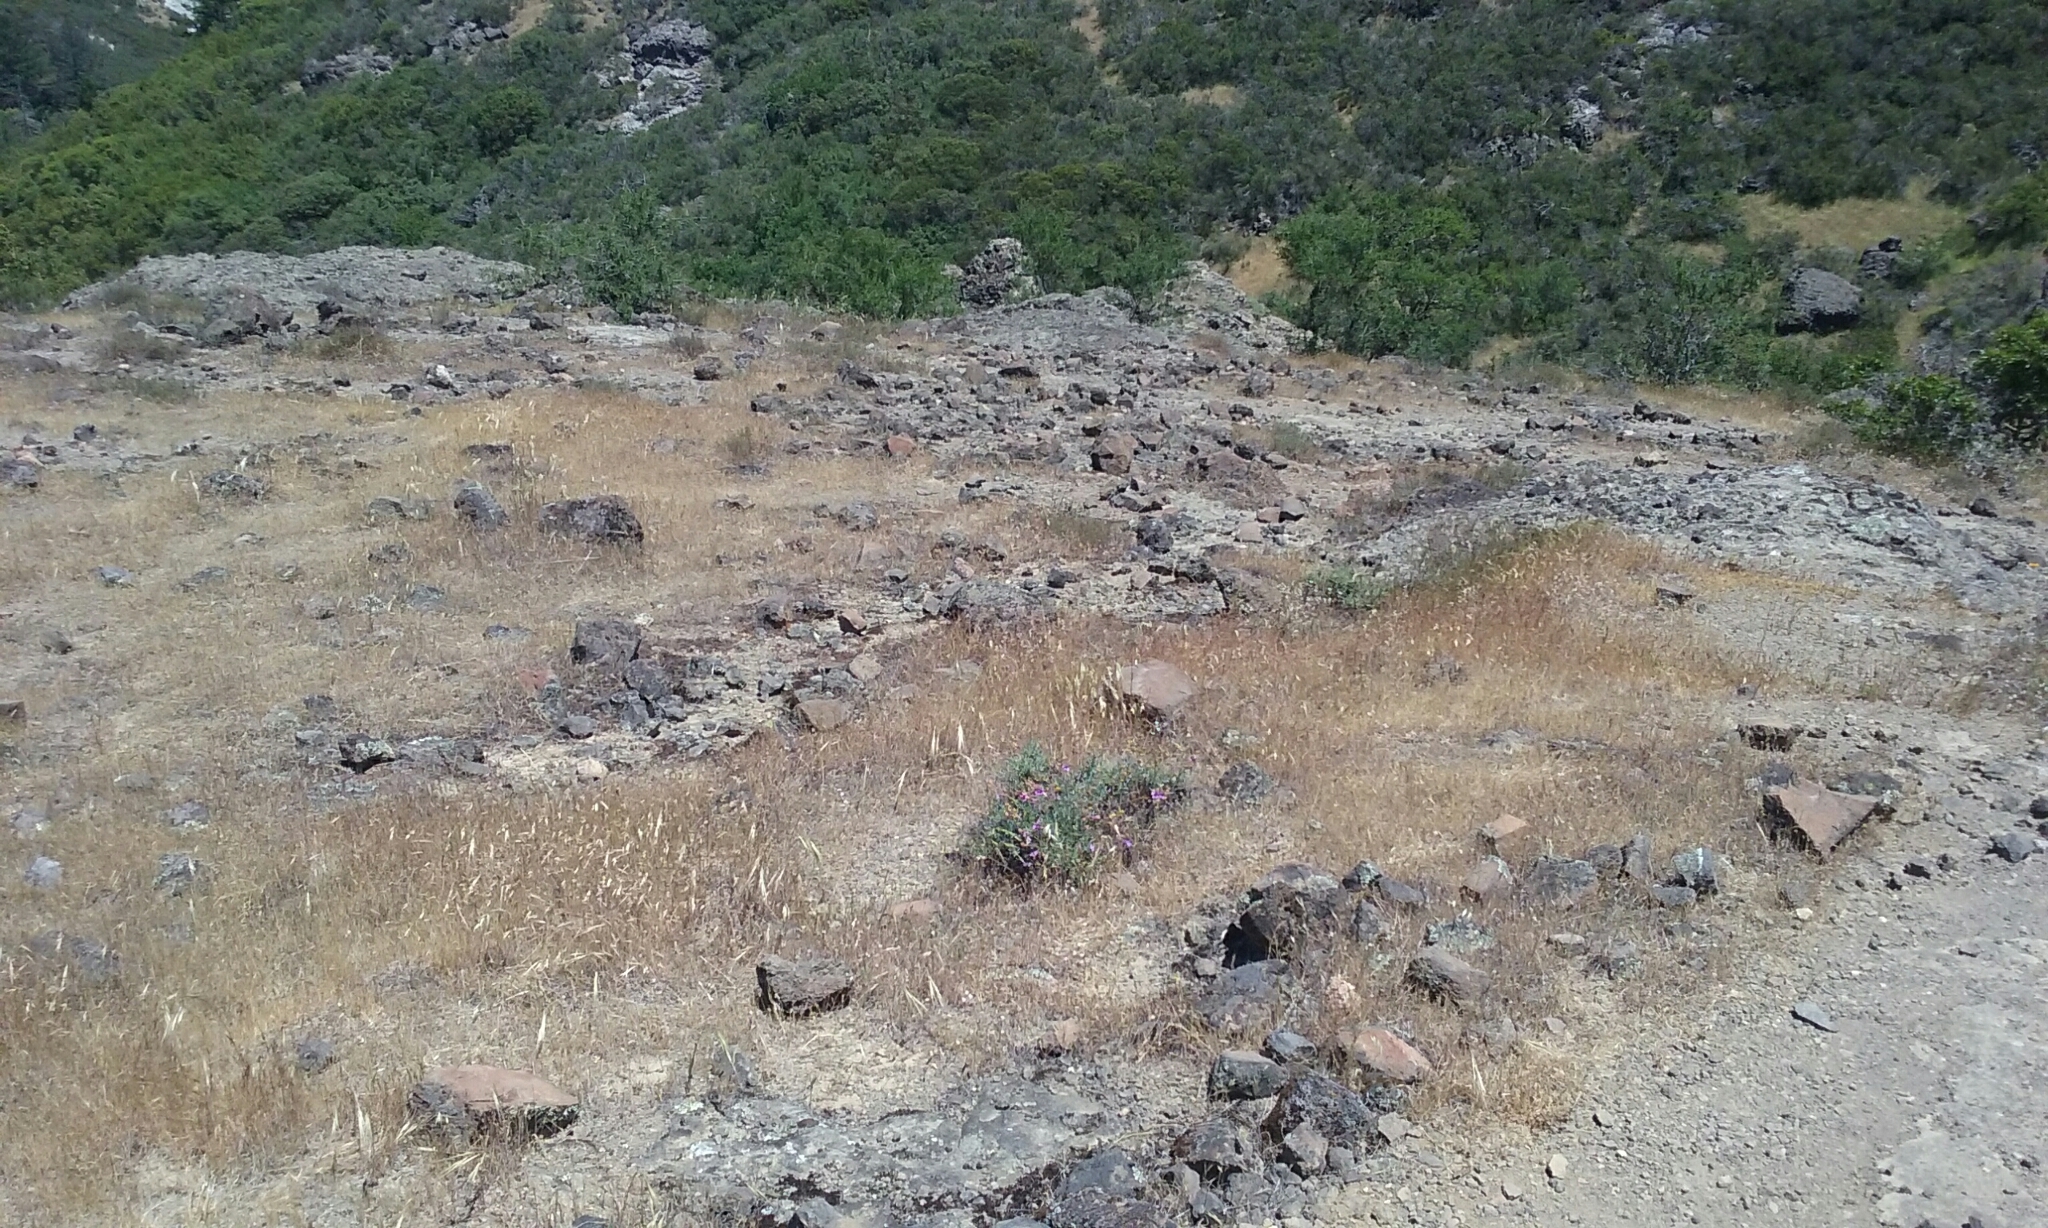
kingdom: Plantae
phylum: Tracheophyta
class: Magnoliopsida
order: Lamiales
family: Plantaginaceae
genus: Penstemon
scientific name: Penstemon heterophyllus
